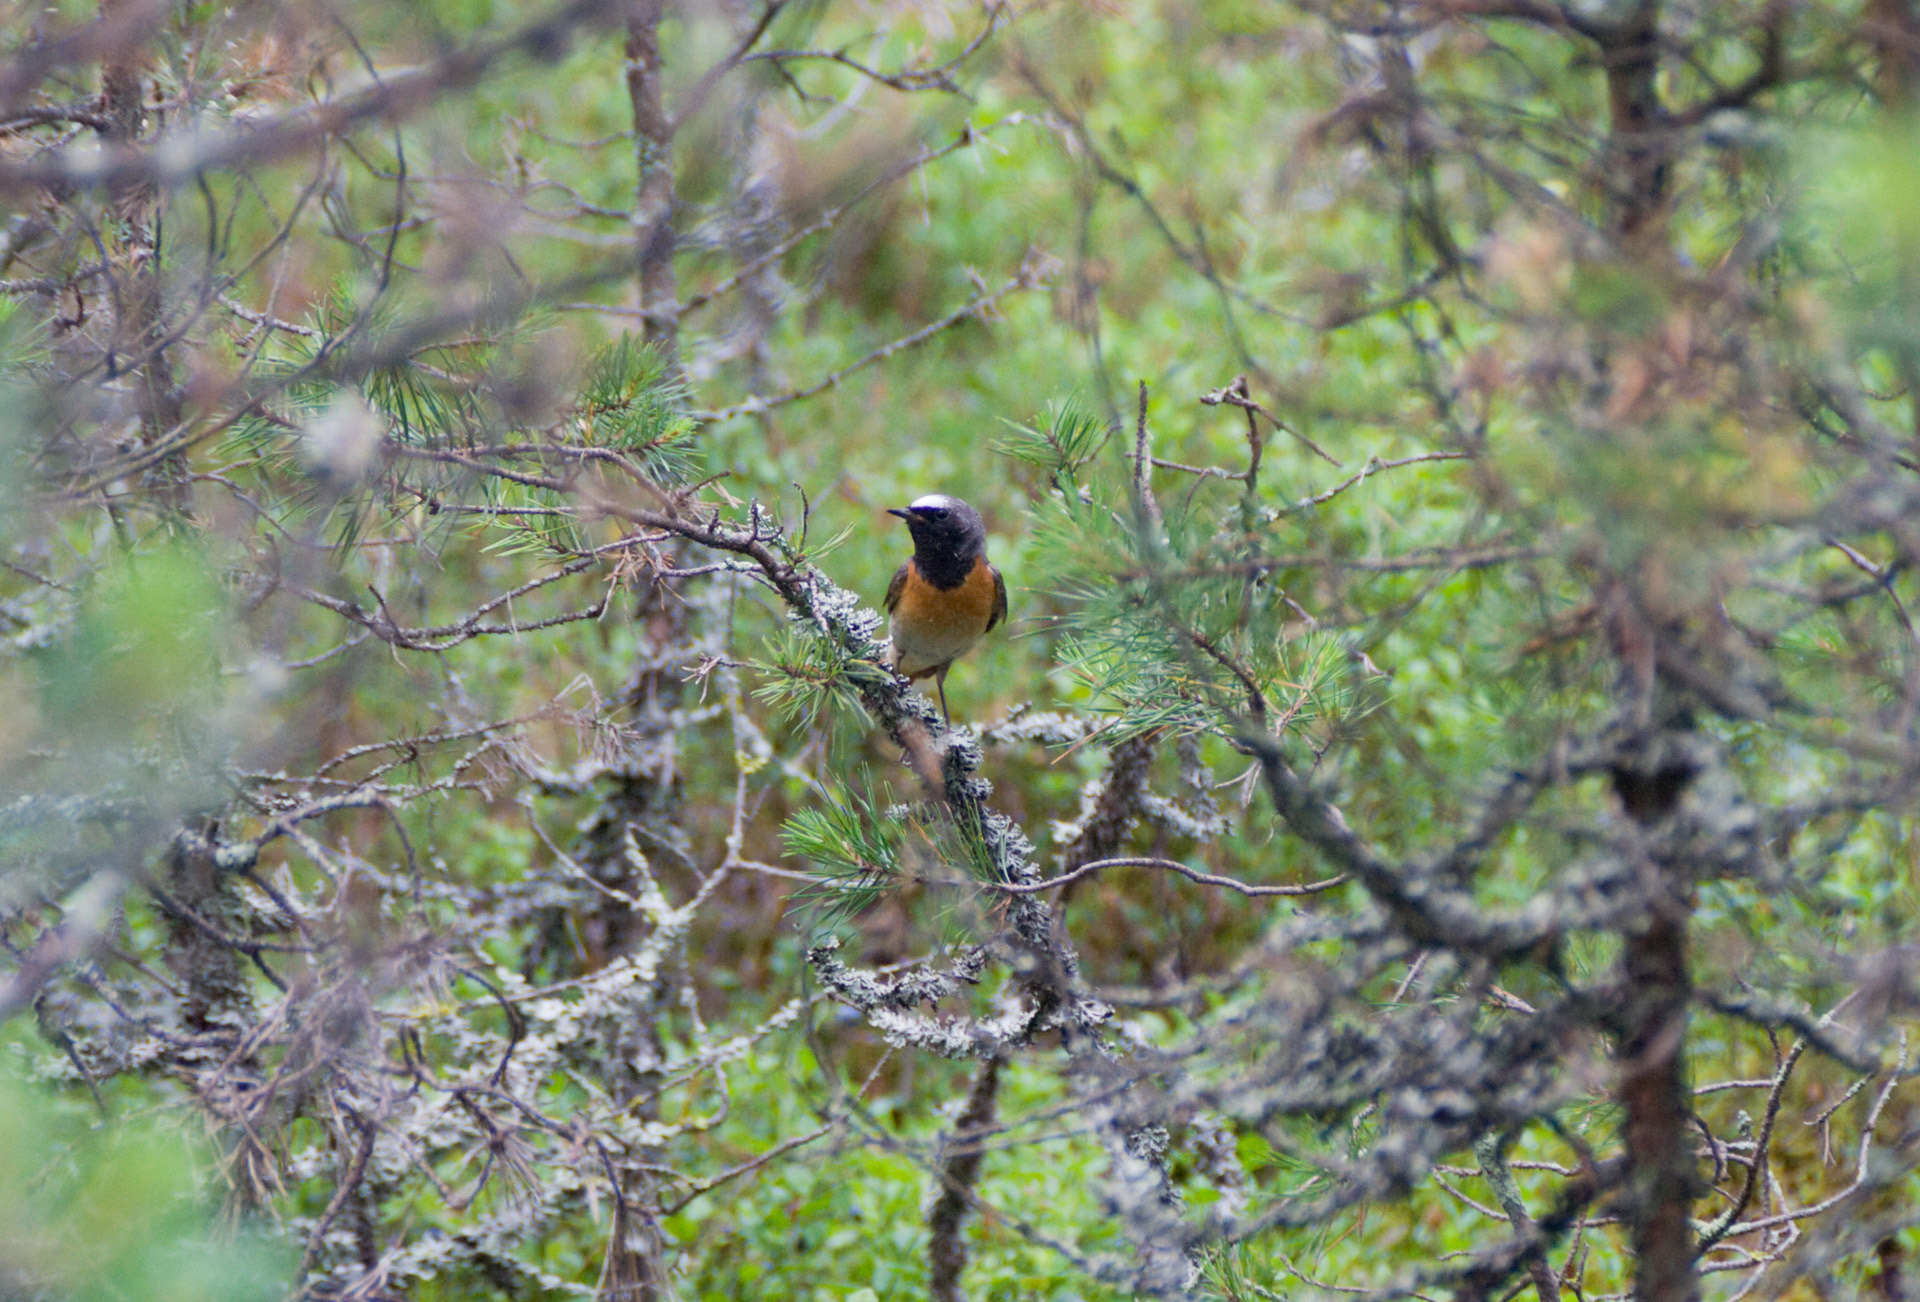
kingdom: Animalia
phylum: Chordata
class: Aves
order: Passeriformes
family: Muscicapidae
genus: Phoenicurus
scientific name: Phoenicurus phoenicurus
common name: Common redstart
